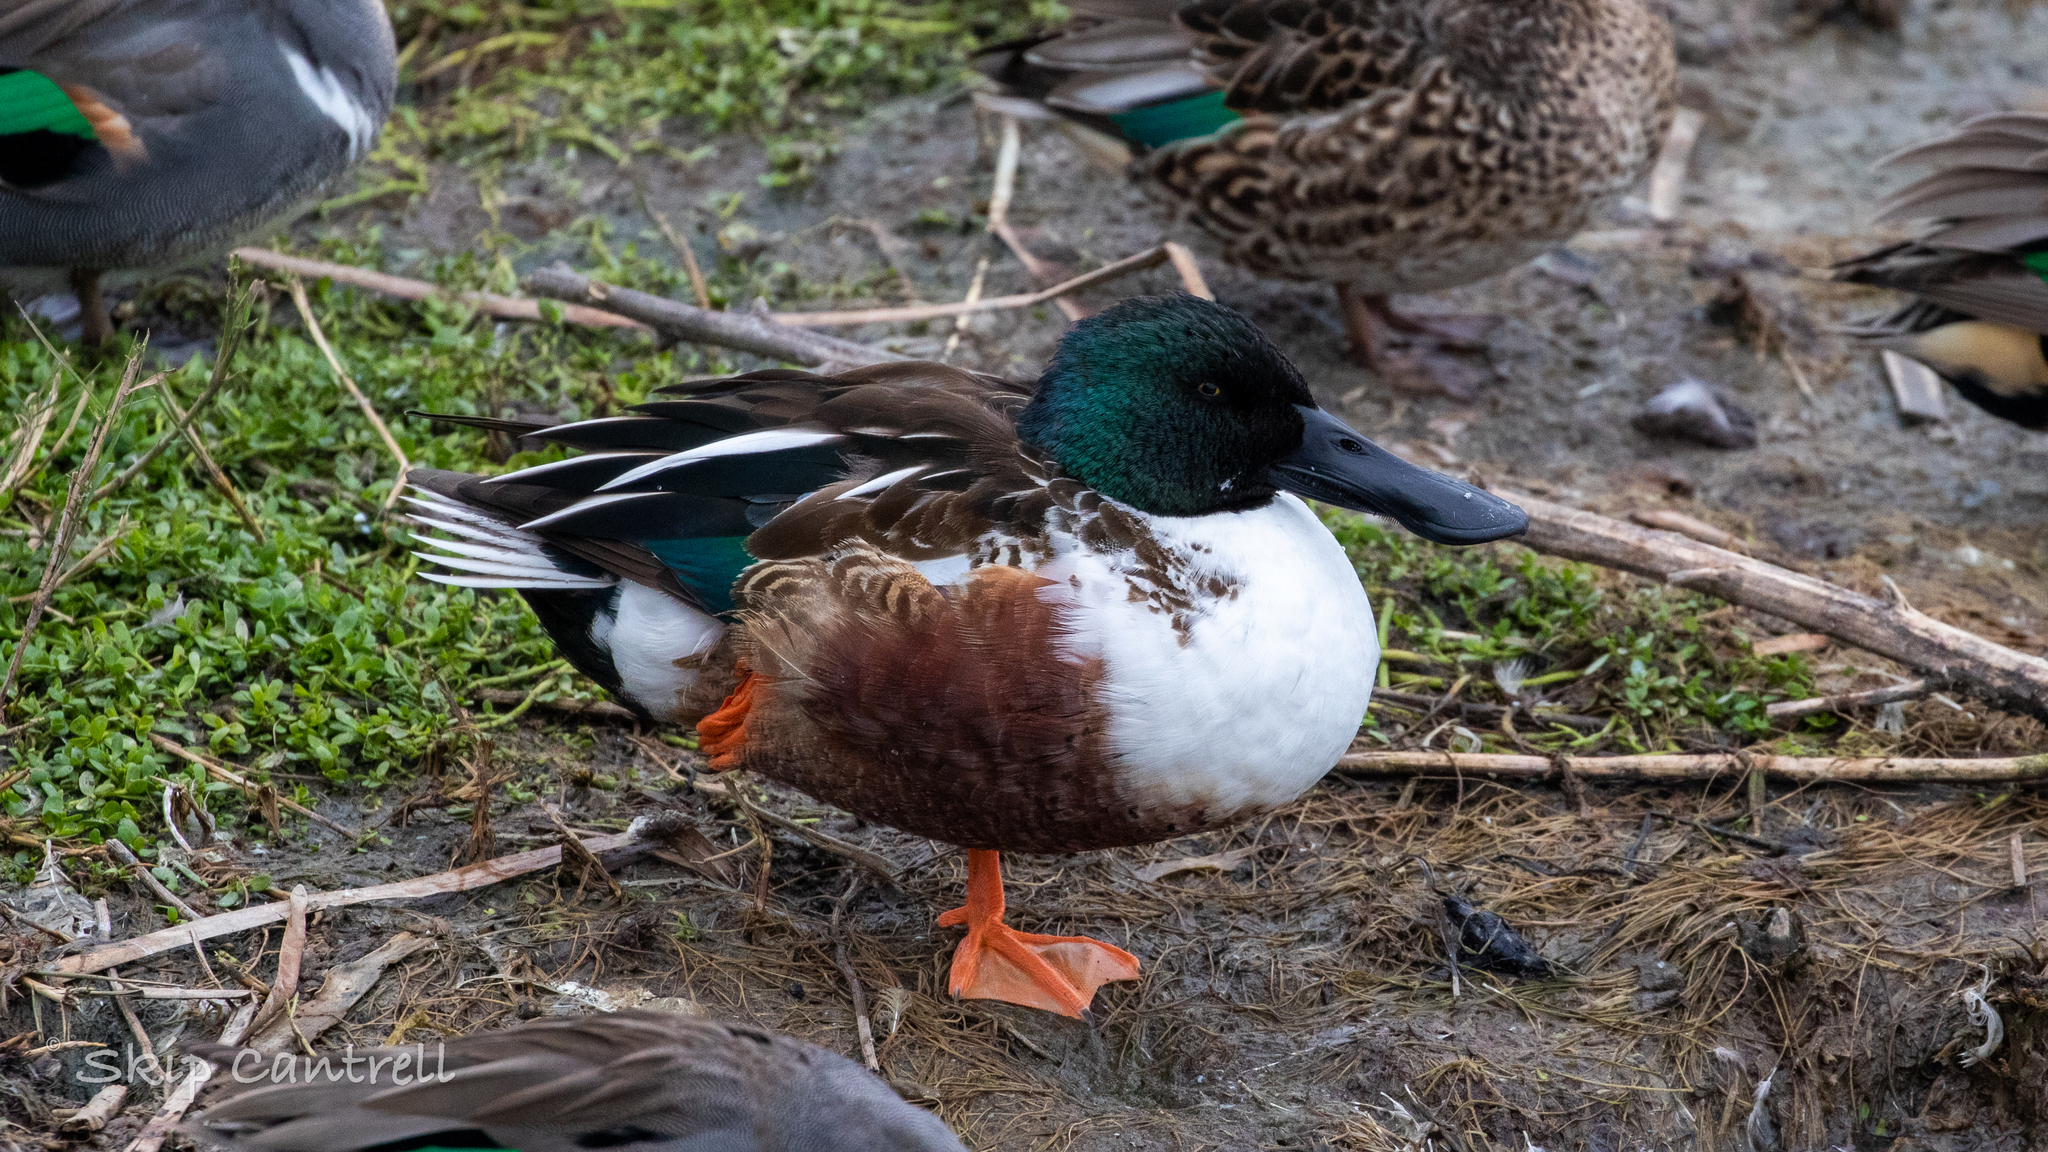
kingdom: Animalia
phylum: Chordata
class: Aves
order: Anseriformes
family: Anatidae
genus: Spatula
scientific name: Spatula clypeata
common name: Northern shoveler
